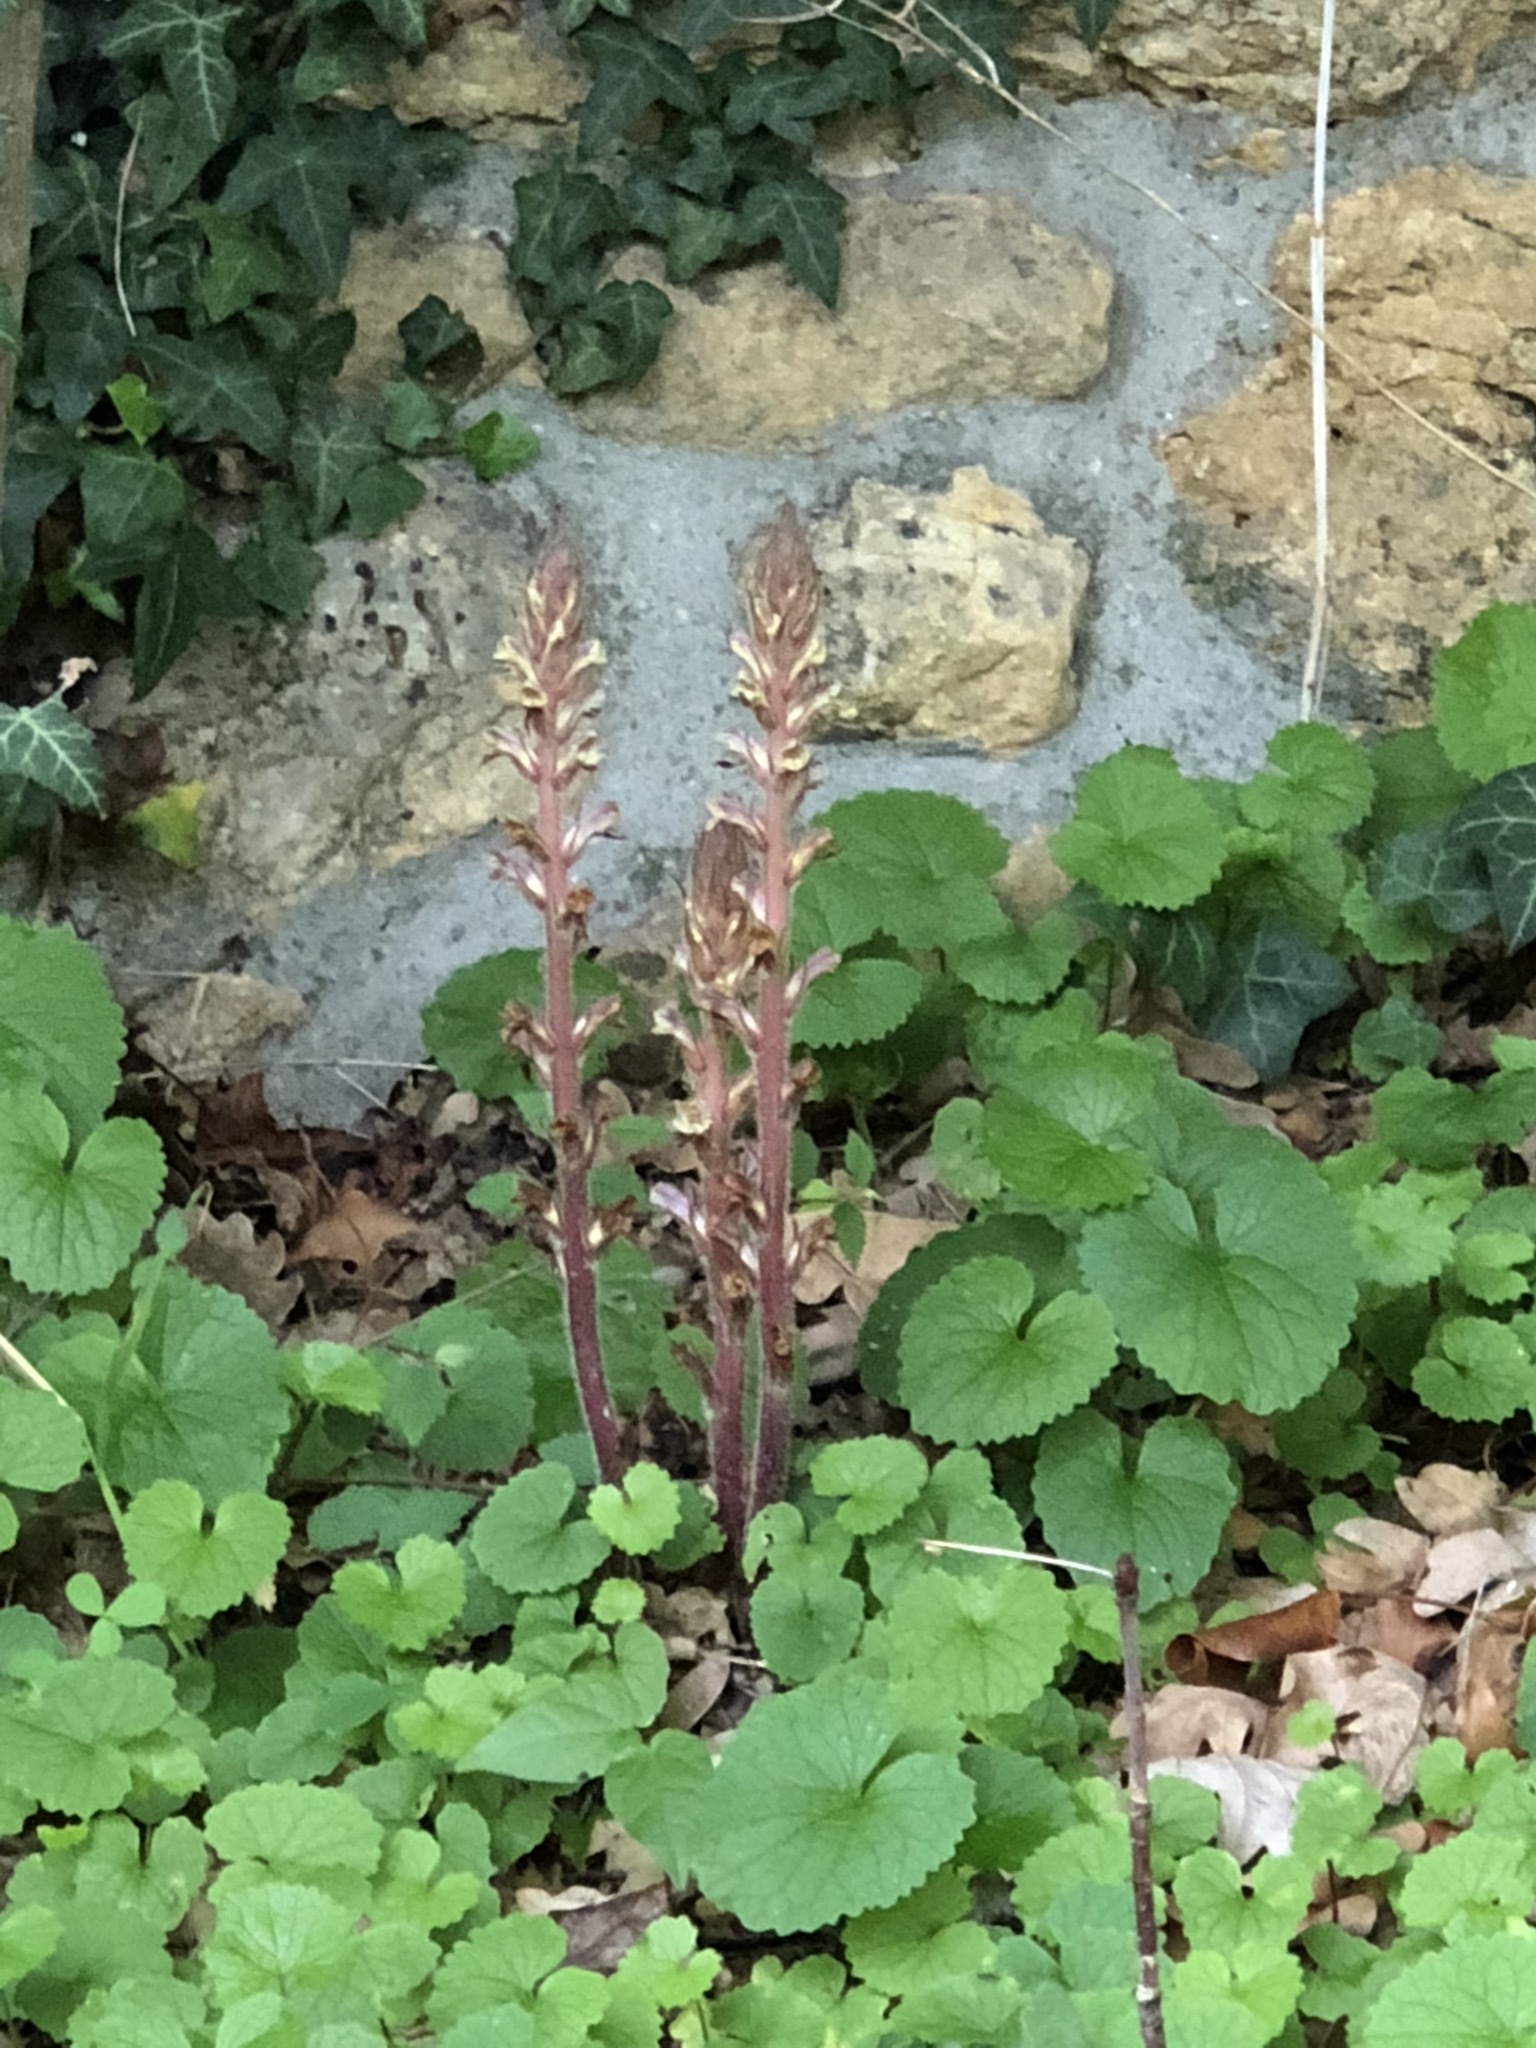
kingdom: Plantae
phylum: Tracheophyta
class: Magnoliopsida
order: Lamiales
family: Orobanchaceae
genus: Orobanche
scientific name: Orobanche hederae
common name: Ivy broomrape
